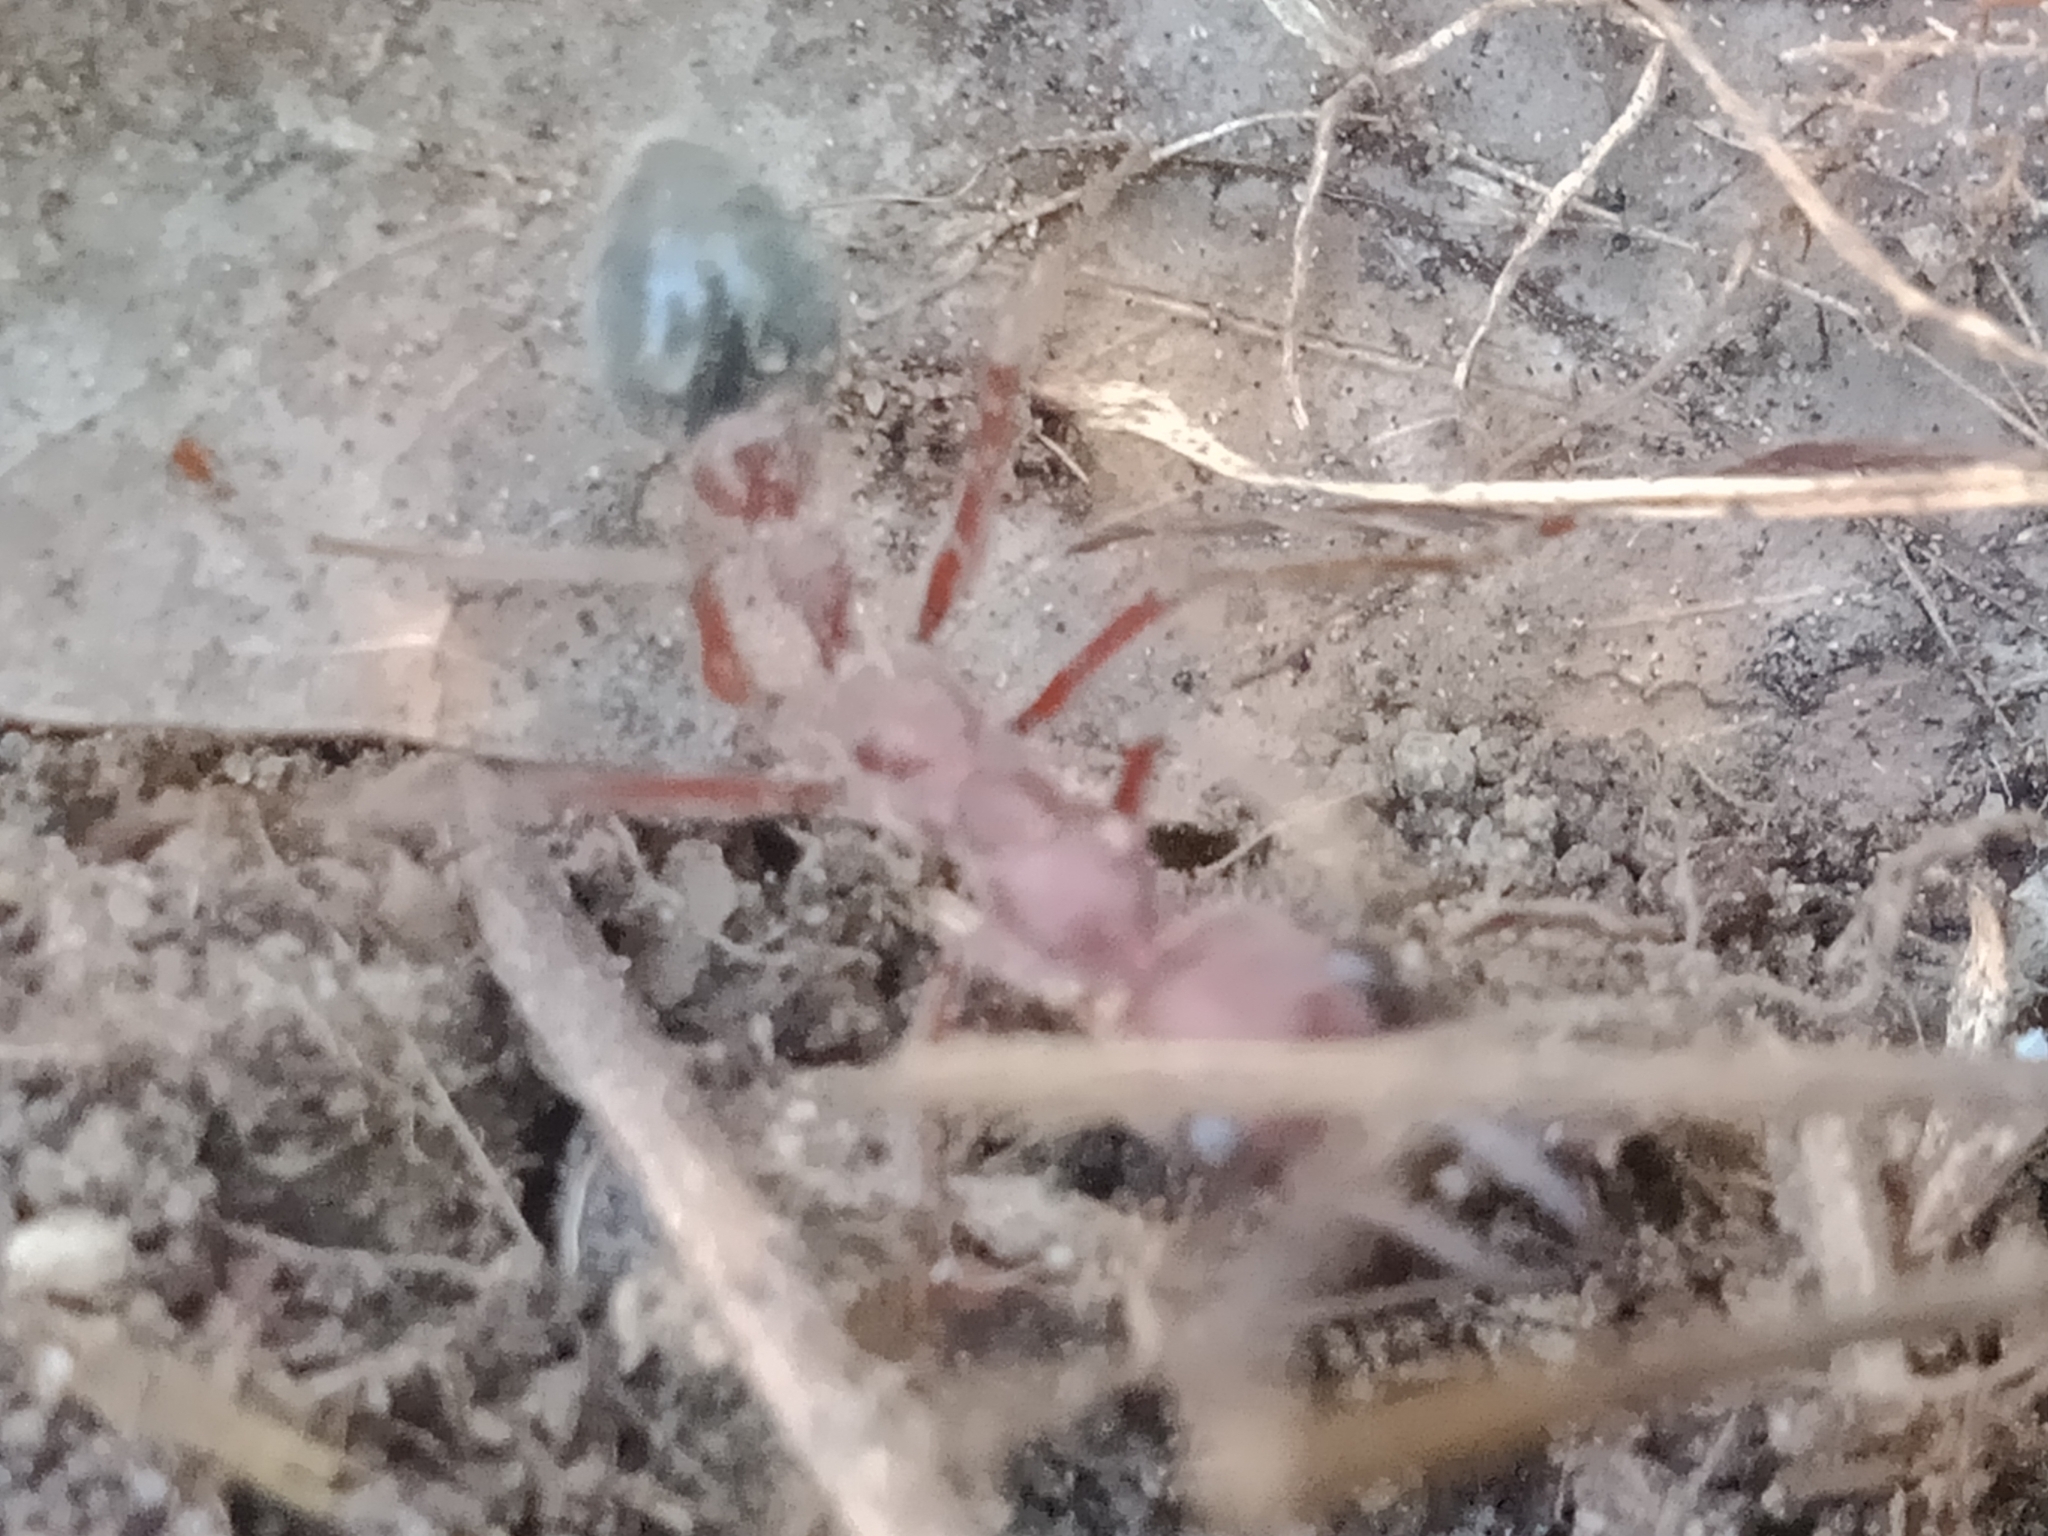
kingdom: Animalia
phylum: Arthropoda
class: Insecta
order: Hymenoptera
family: Formicidae
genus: Myrmecia
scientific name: Myrmecia brevinoda
